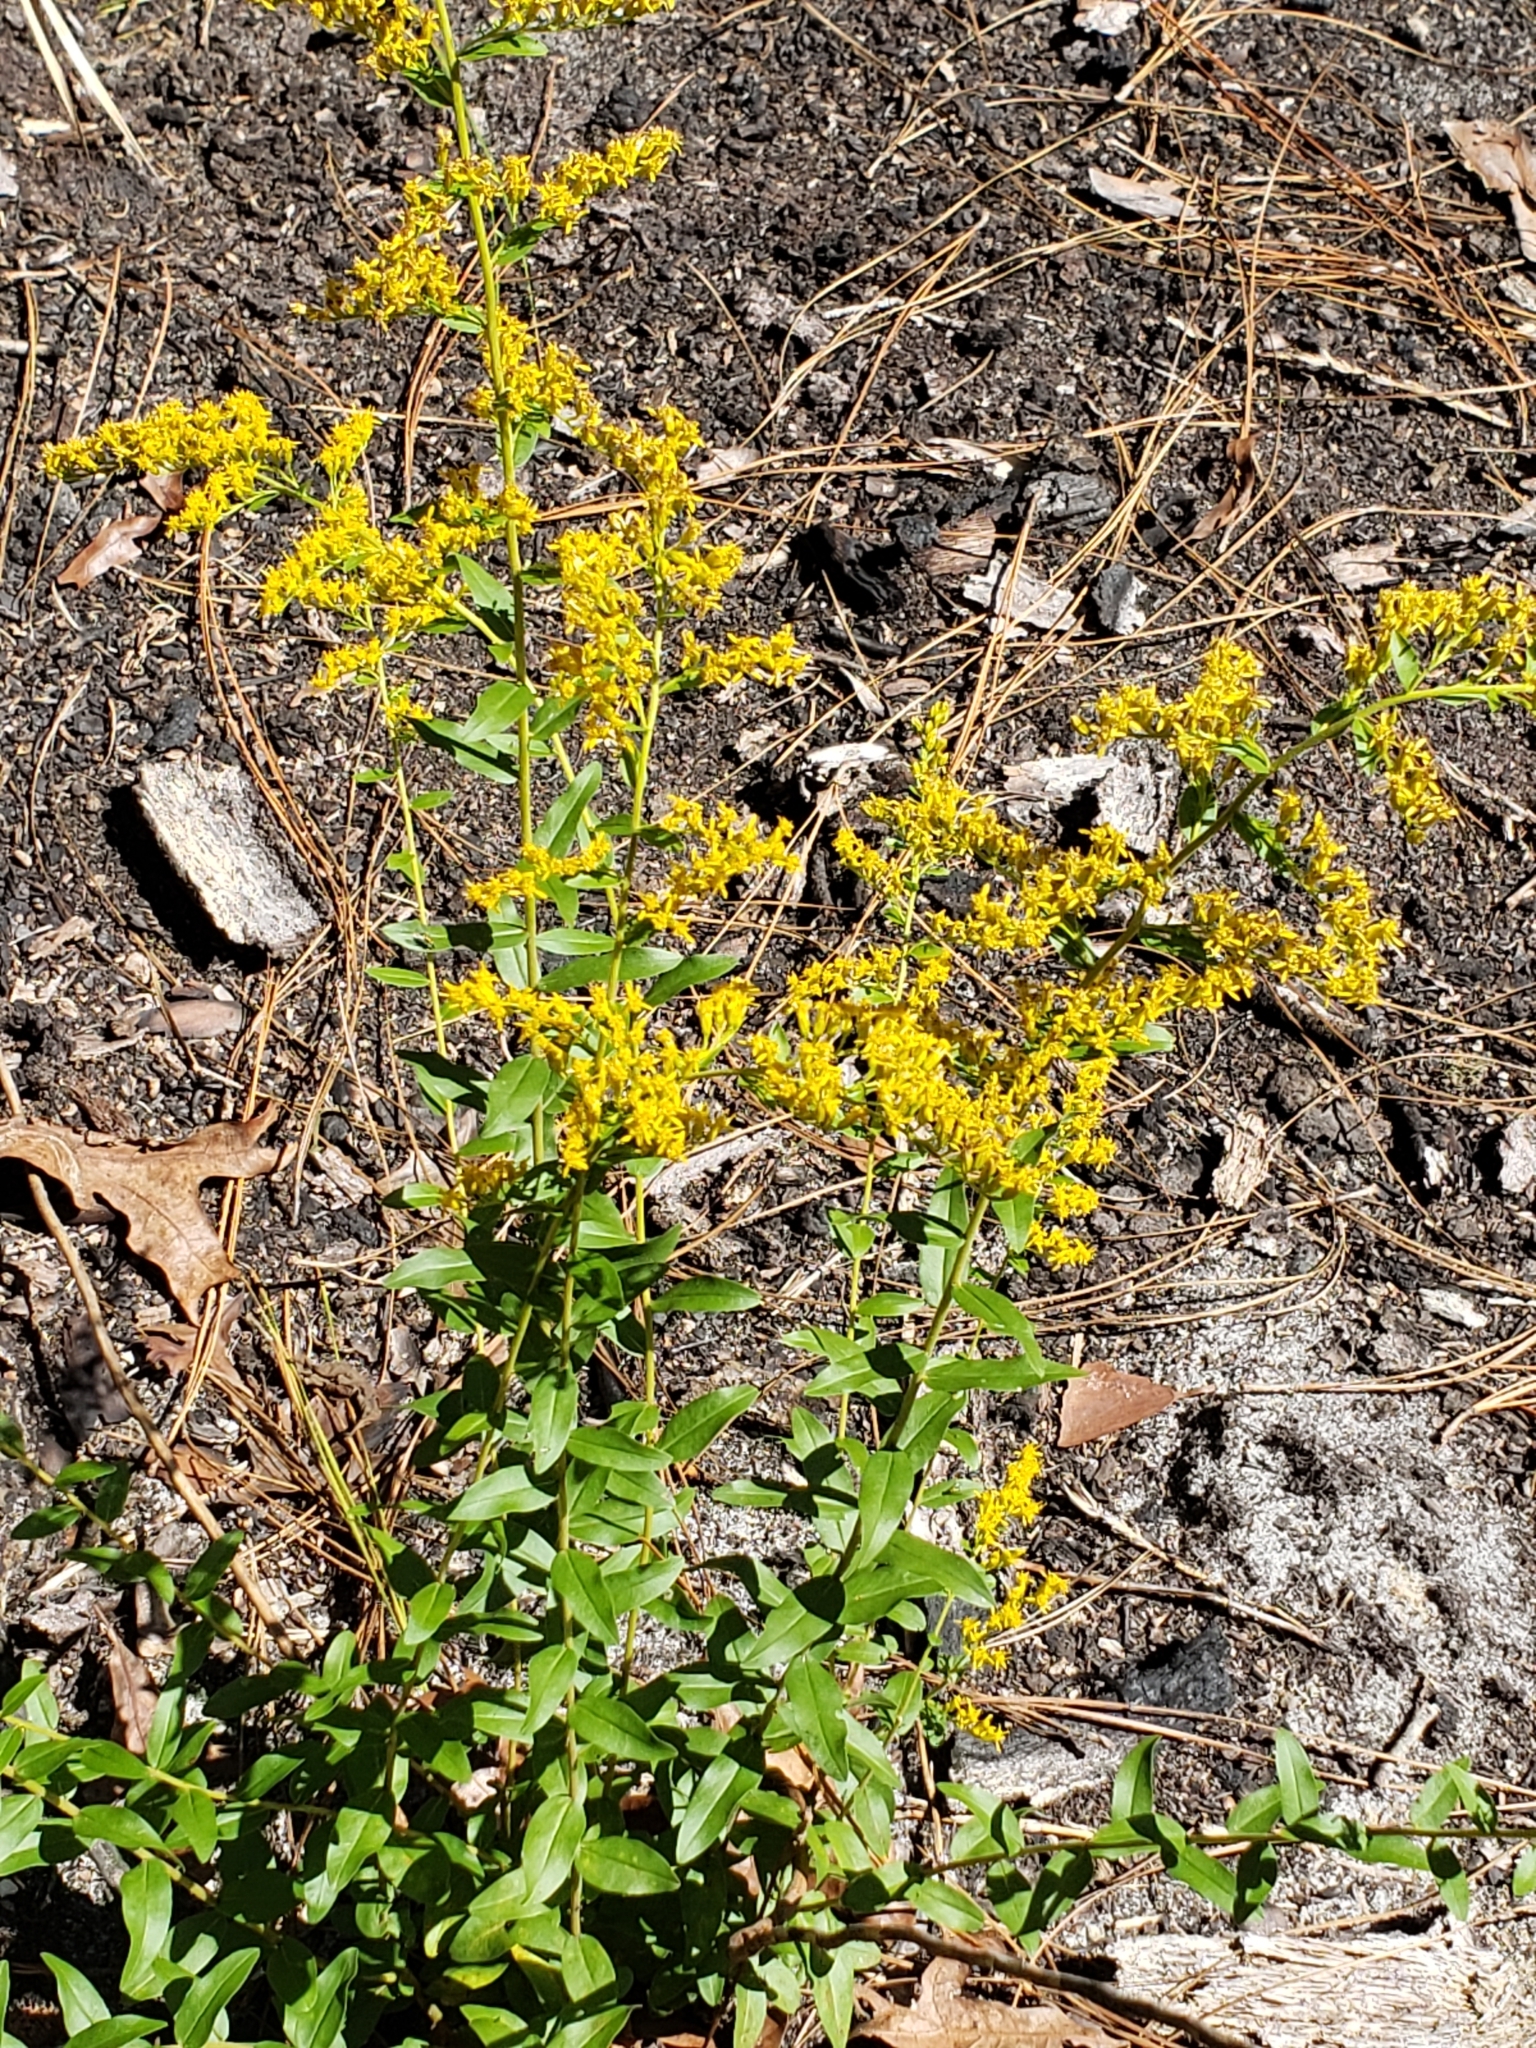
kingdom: Plantae
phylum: Tracheophyta
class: Magnoliopsida
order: Asterales
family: Asteraceae
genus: Solidago
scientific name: Solidago chapmanii
